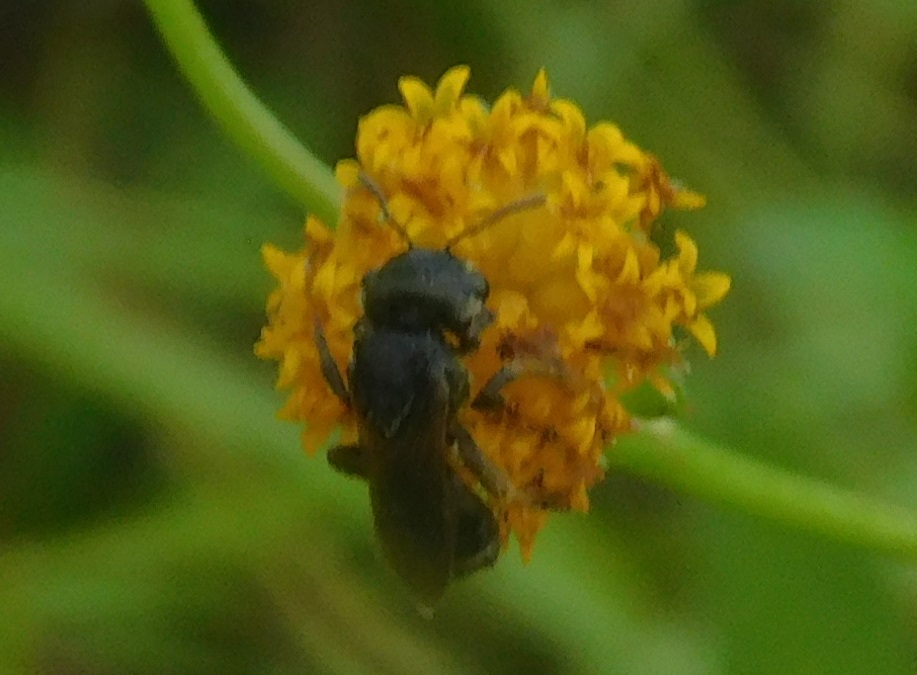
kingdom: Animalia
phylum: Arthropoda
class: Insecta
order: Hymenoptera
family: Halictidae
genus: Halictus
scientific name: Halictus poeyi
